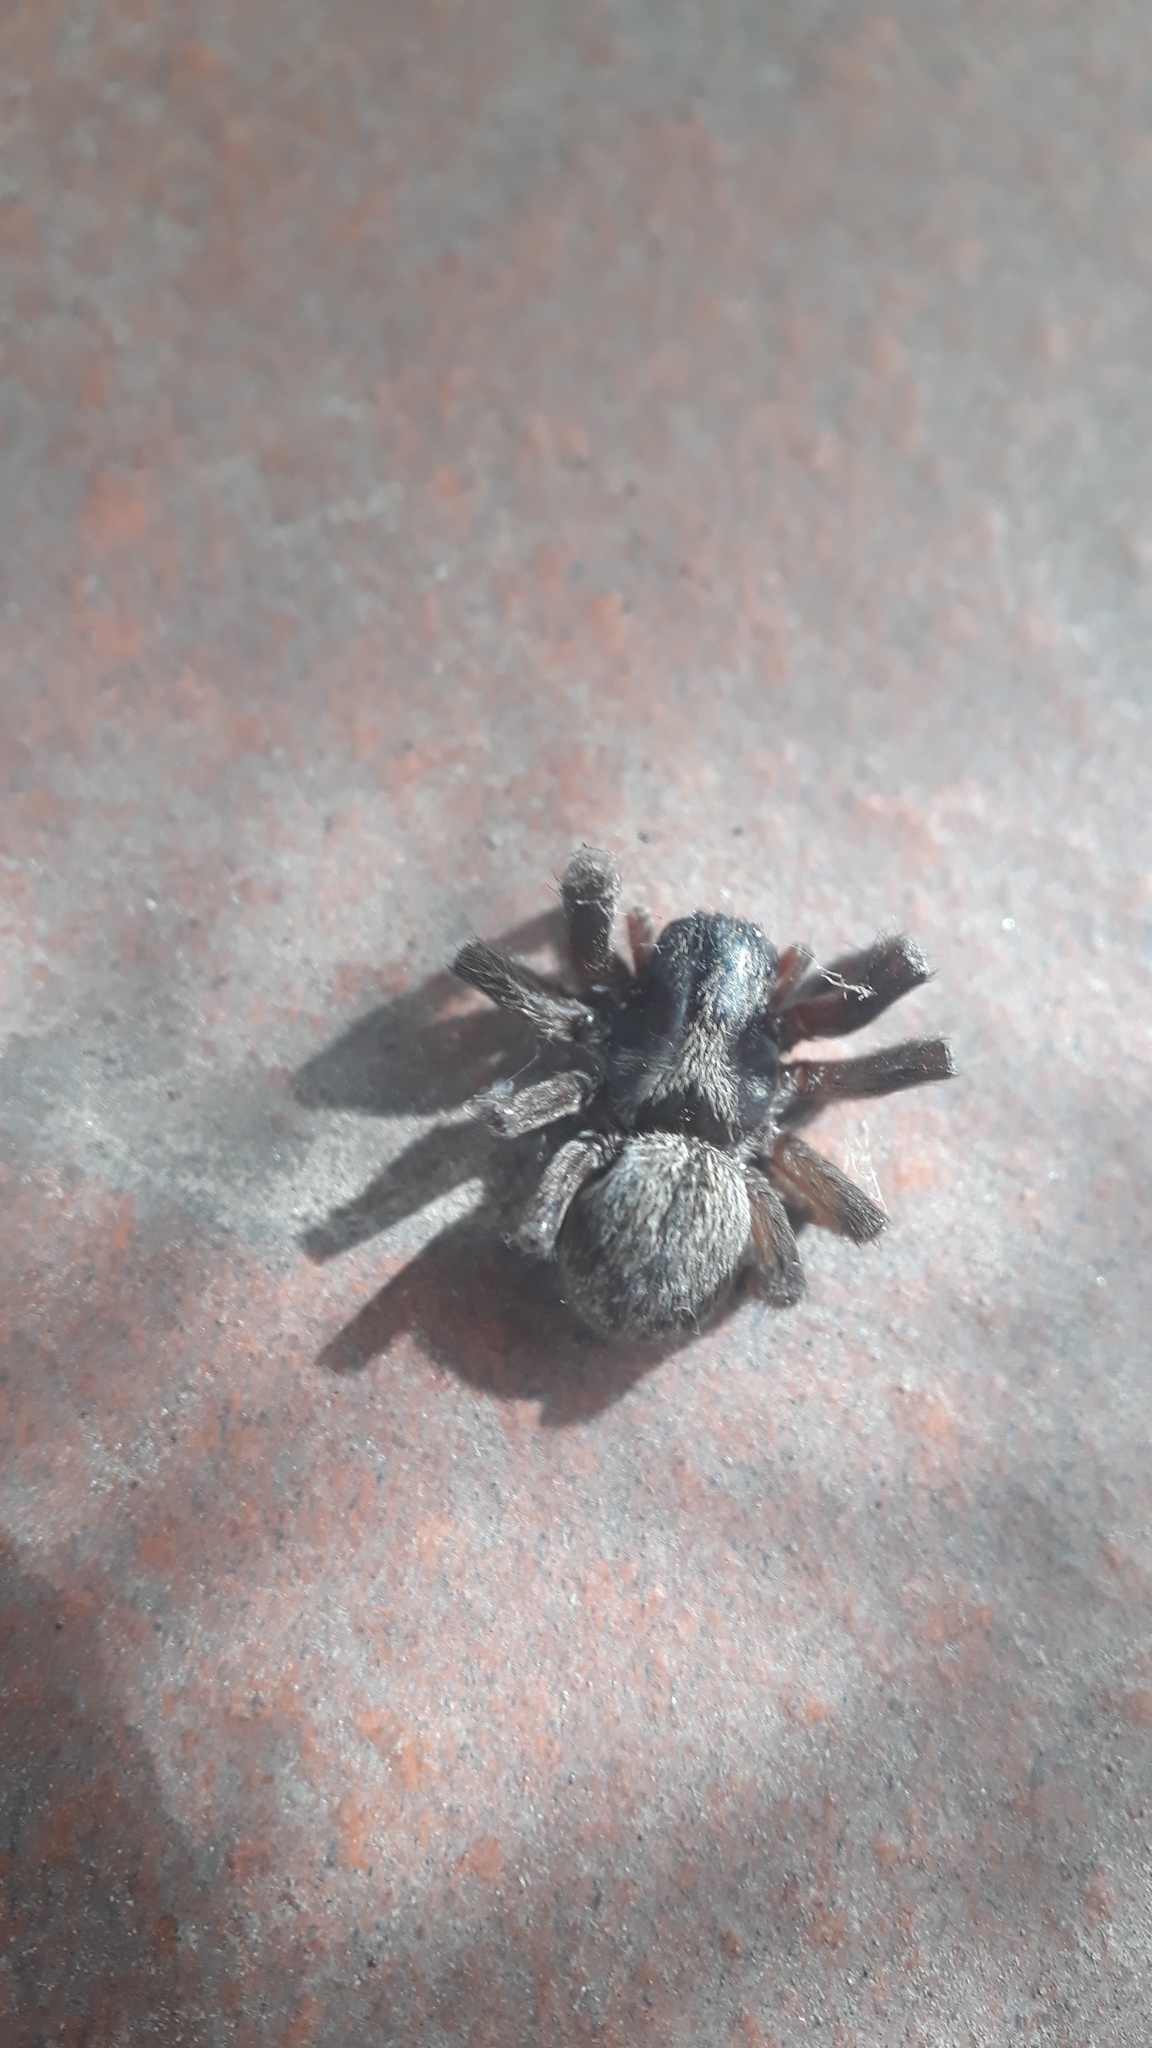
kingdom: Animalia
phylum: Arthropoda
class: Arachnida
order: Araneae
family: Desidae
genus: Badumna
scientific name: Badumna longinqua
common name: Gray house spider
